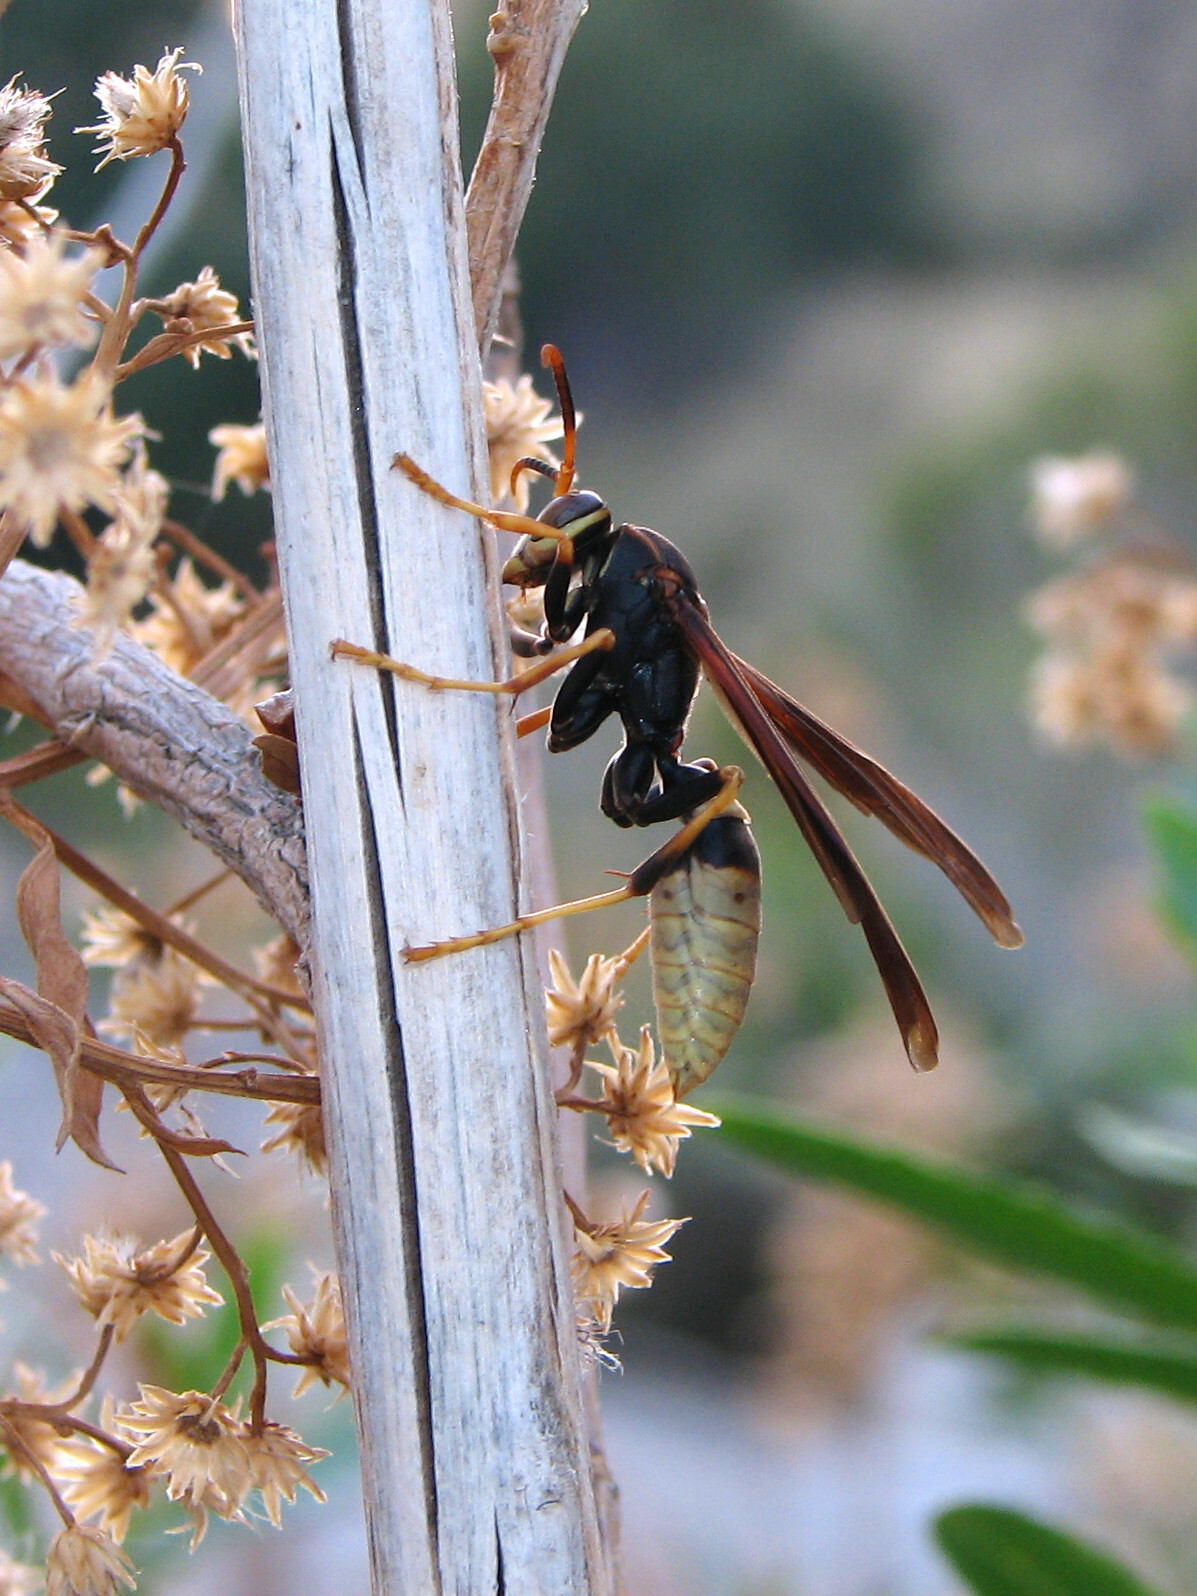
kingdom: Animalia
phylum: Arthropoda
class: Insecta
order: Hymenoptera
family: Eumenidae
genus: Polistes
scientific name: Polistes comanchus
